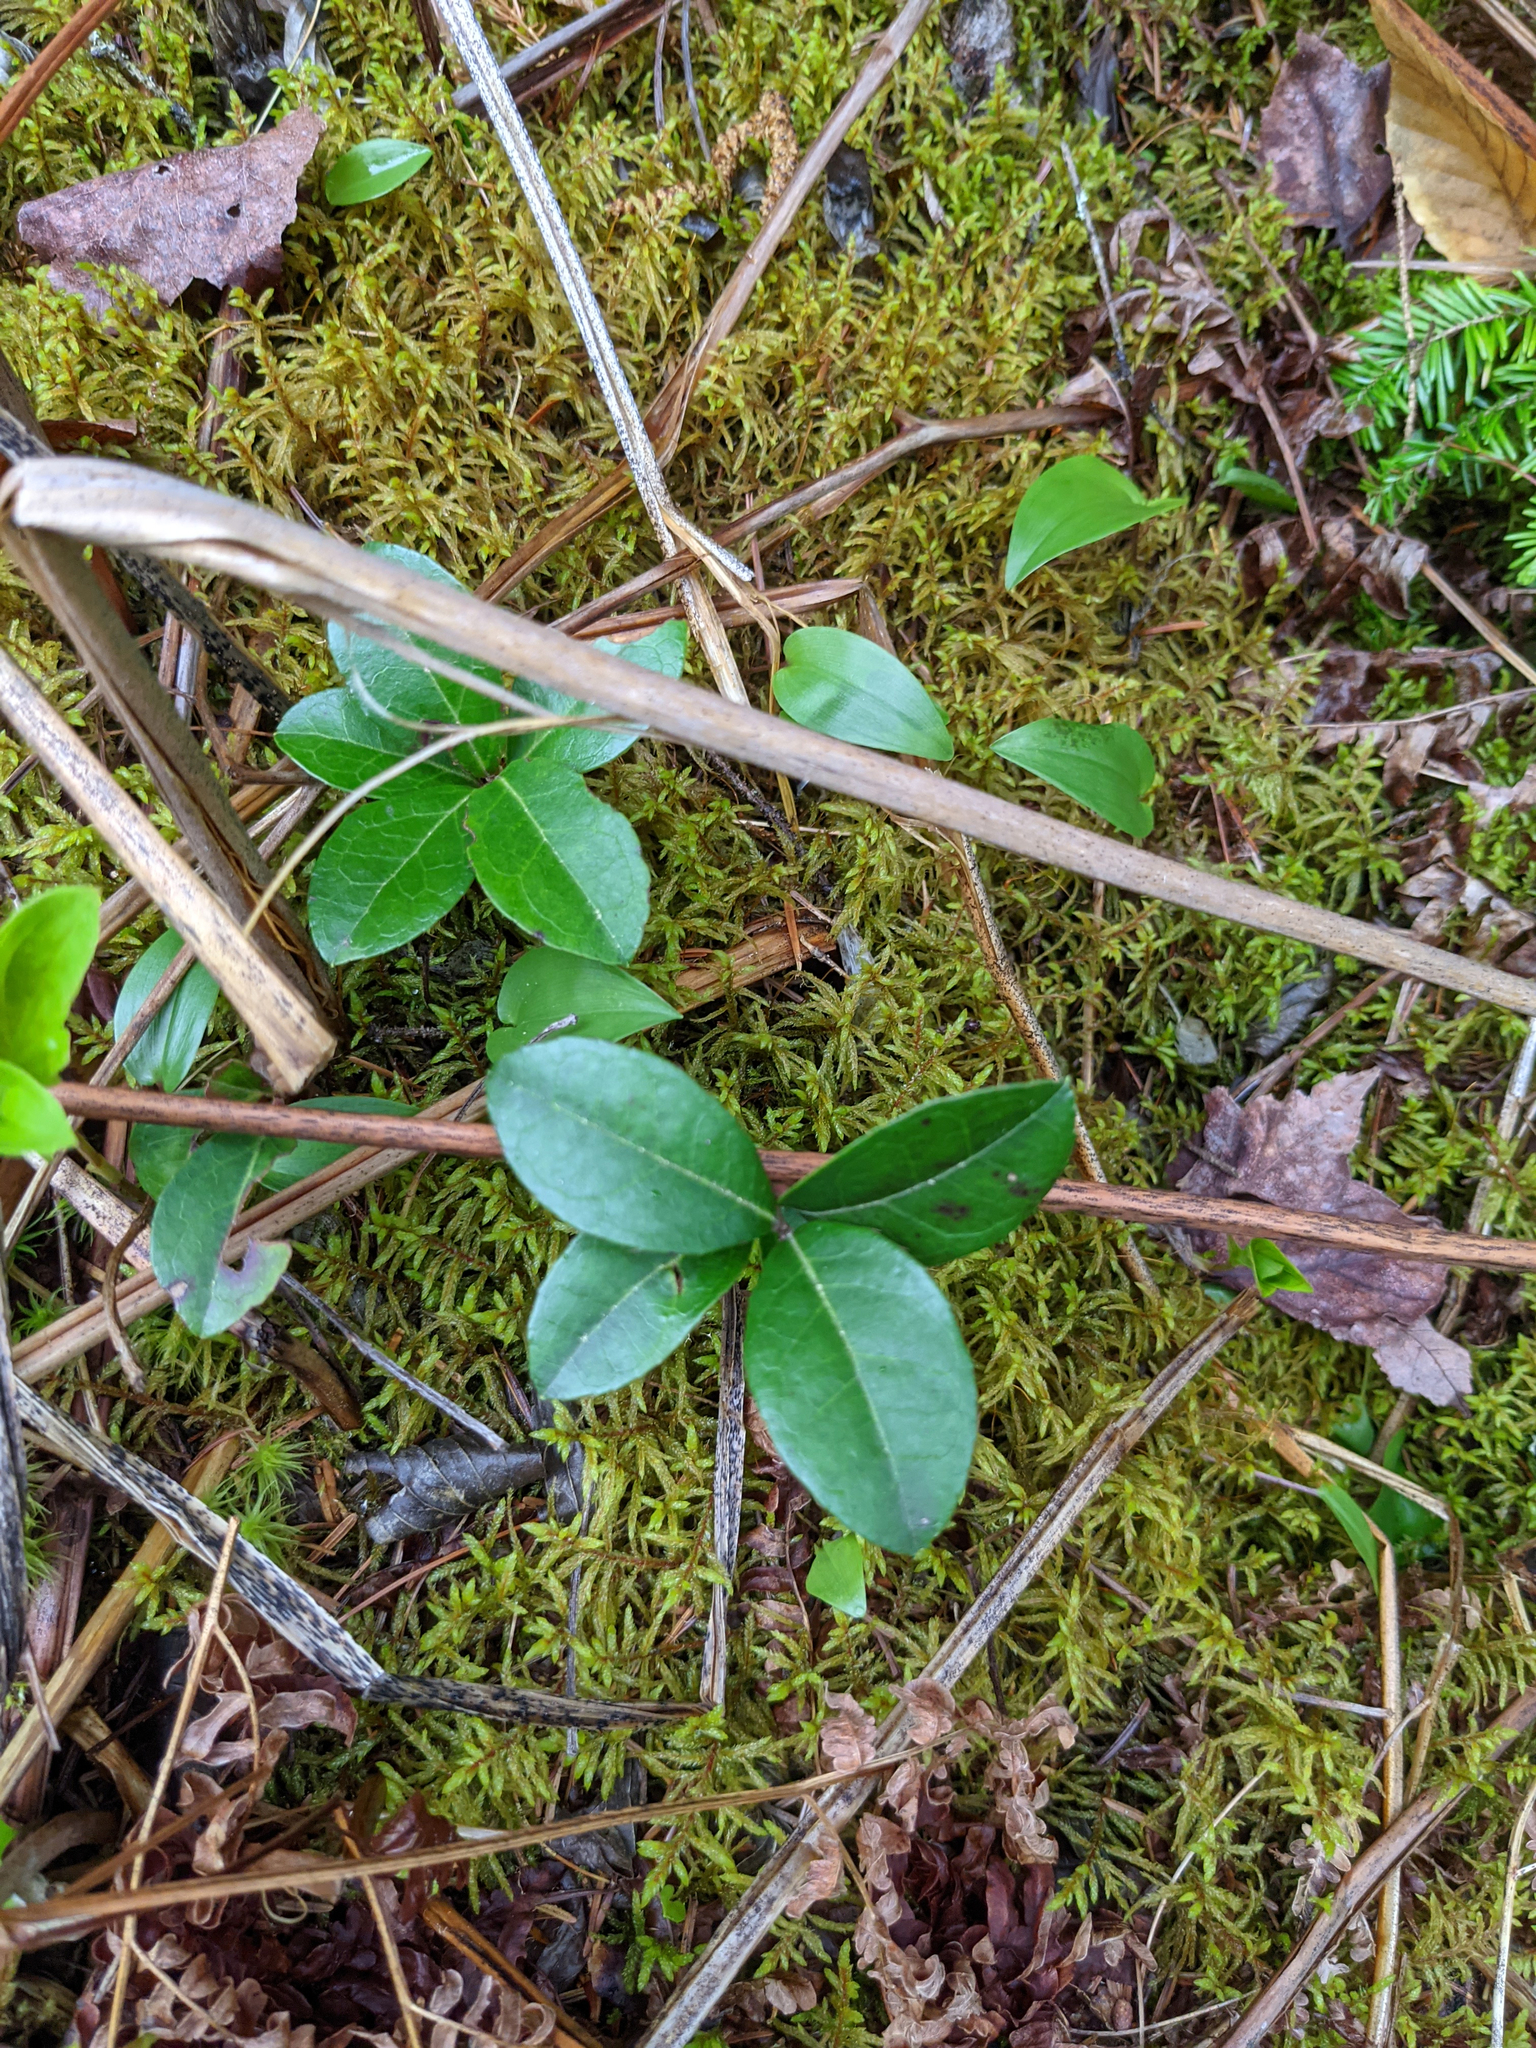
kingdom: Plantae
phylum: Tracheophyta
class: Magnoliopsida
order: Ericales
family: Ericaceae
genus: Gaultheria
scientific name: Gaultheria procumbens
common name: Checkerberry
